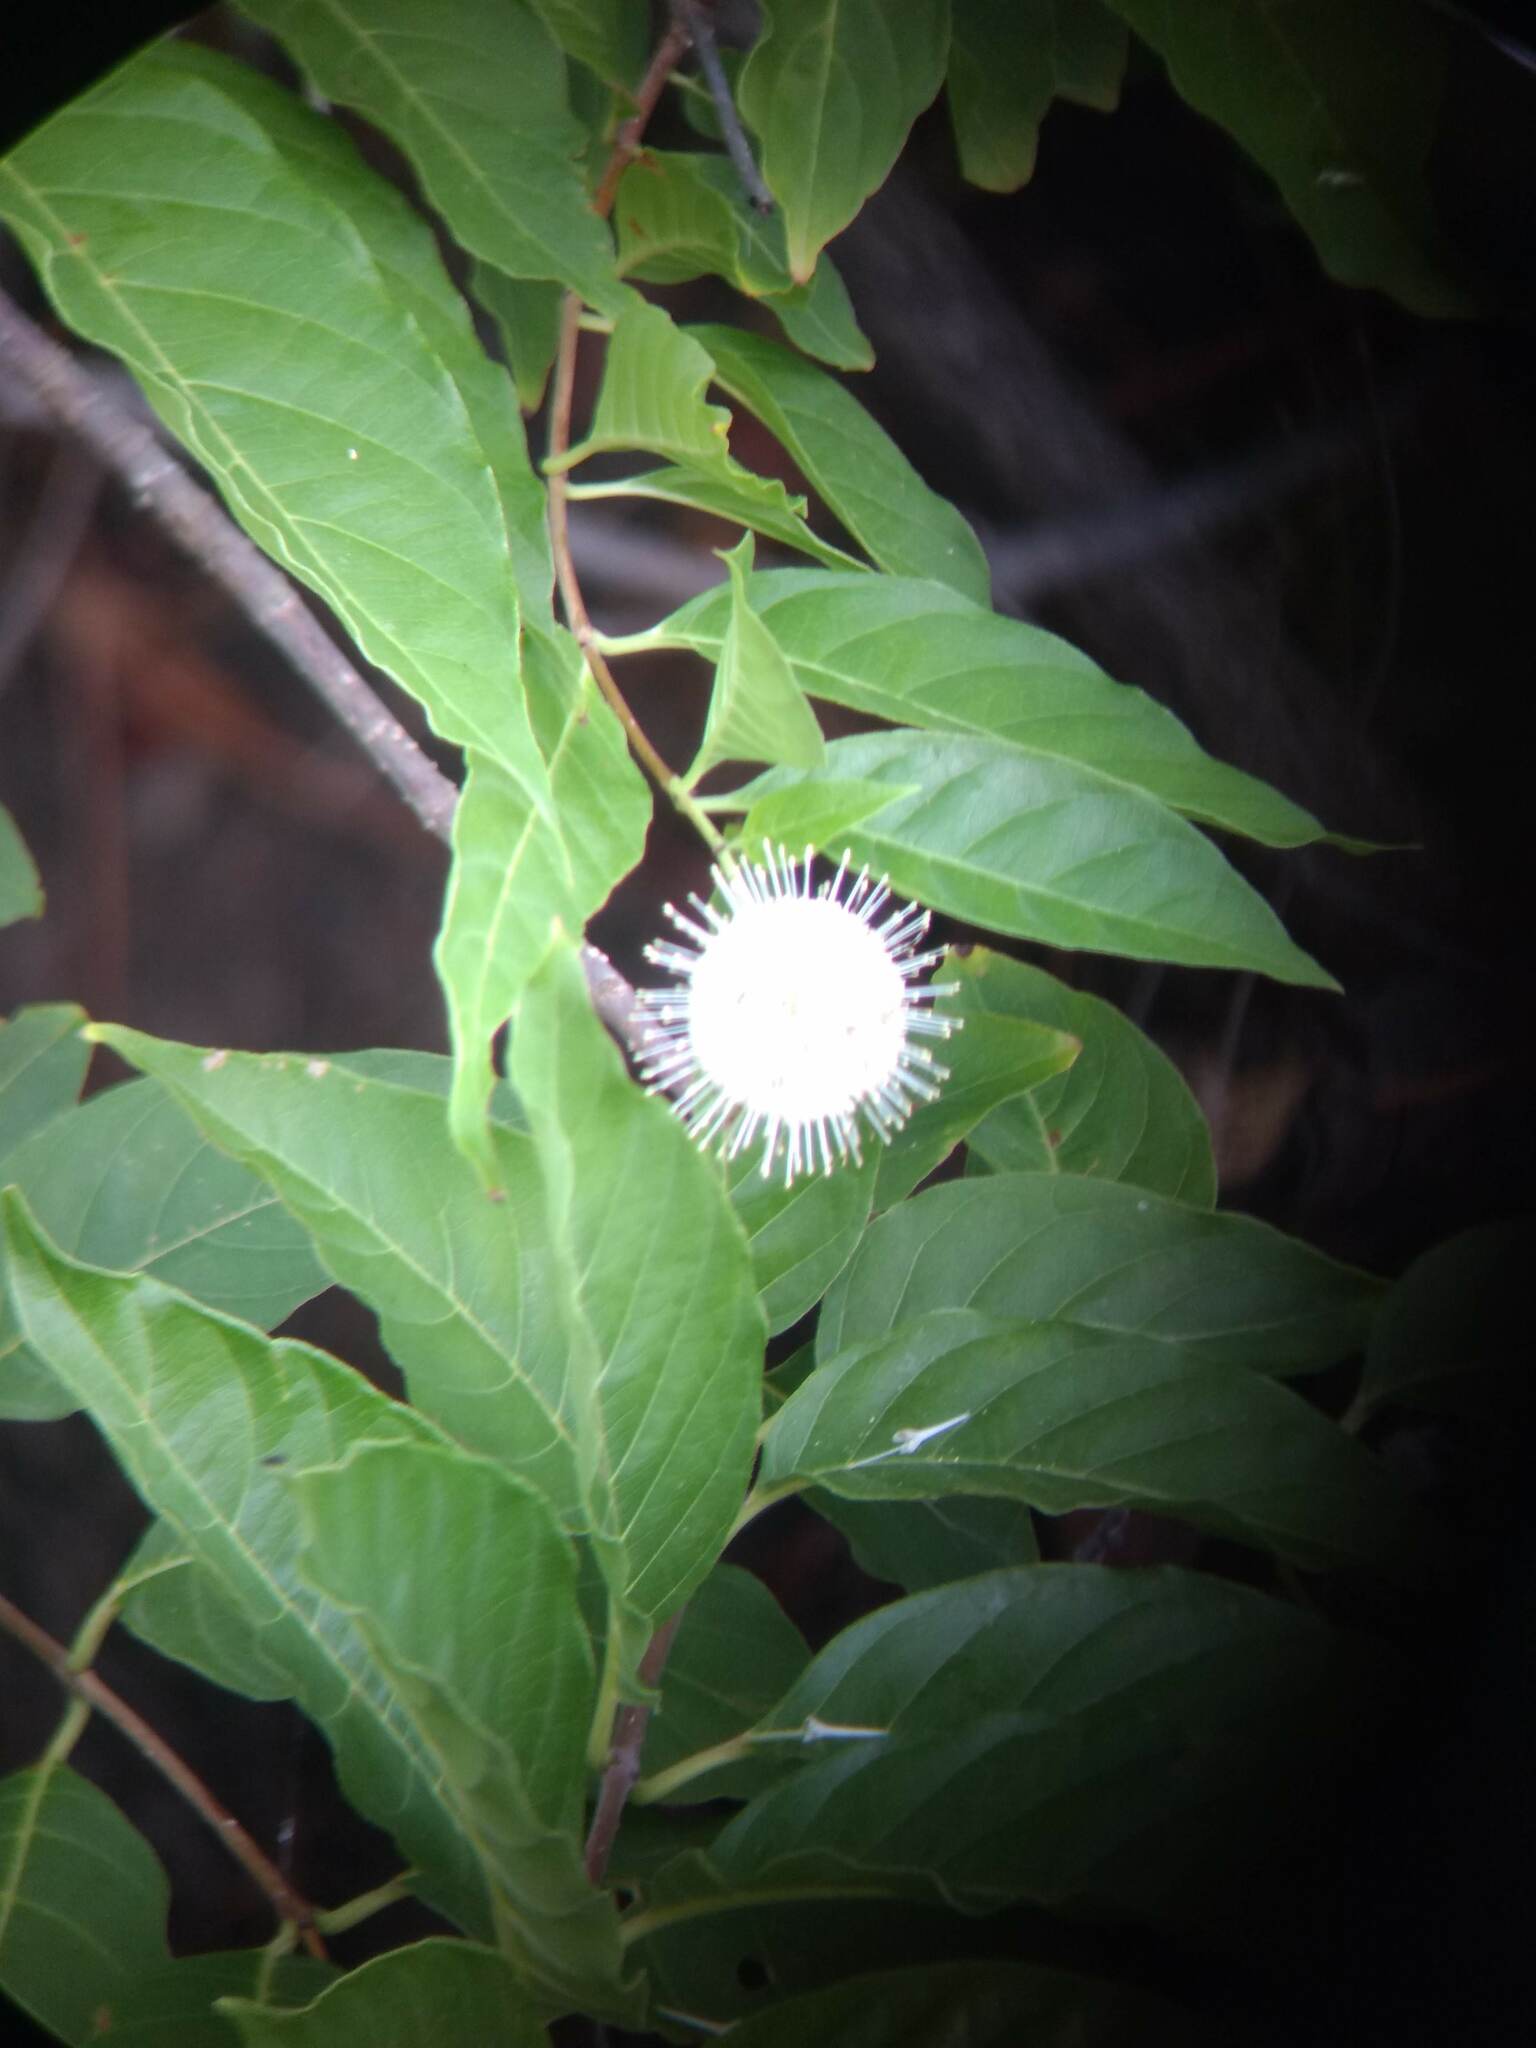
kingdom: Plantae
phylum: Tracheophyta
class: Magnoliopsida
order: Gentianales
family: Rubiaceae
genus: Cephalanthus
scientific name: Cephalanthus occidentalis
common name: Button-willow
